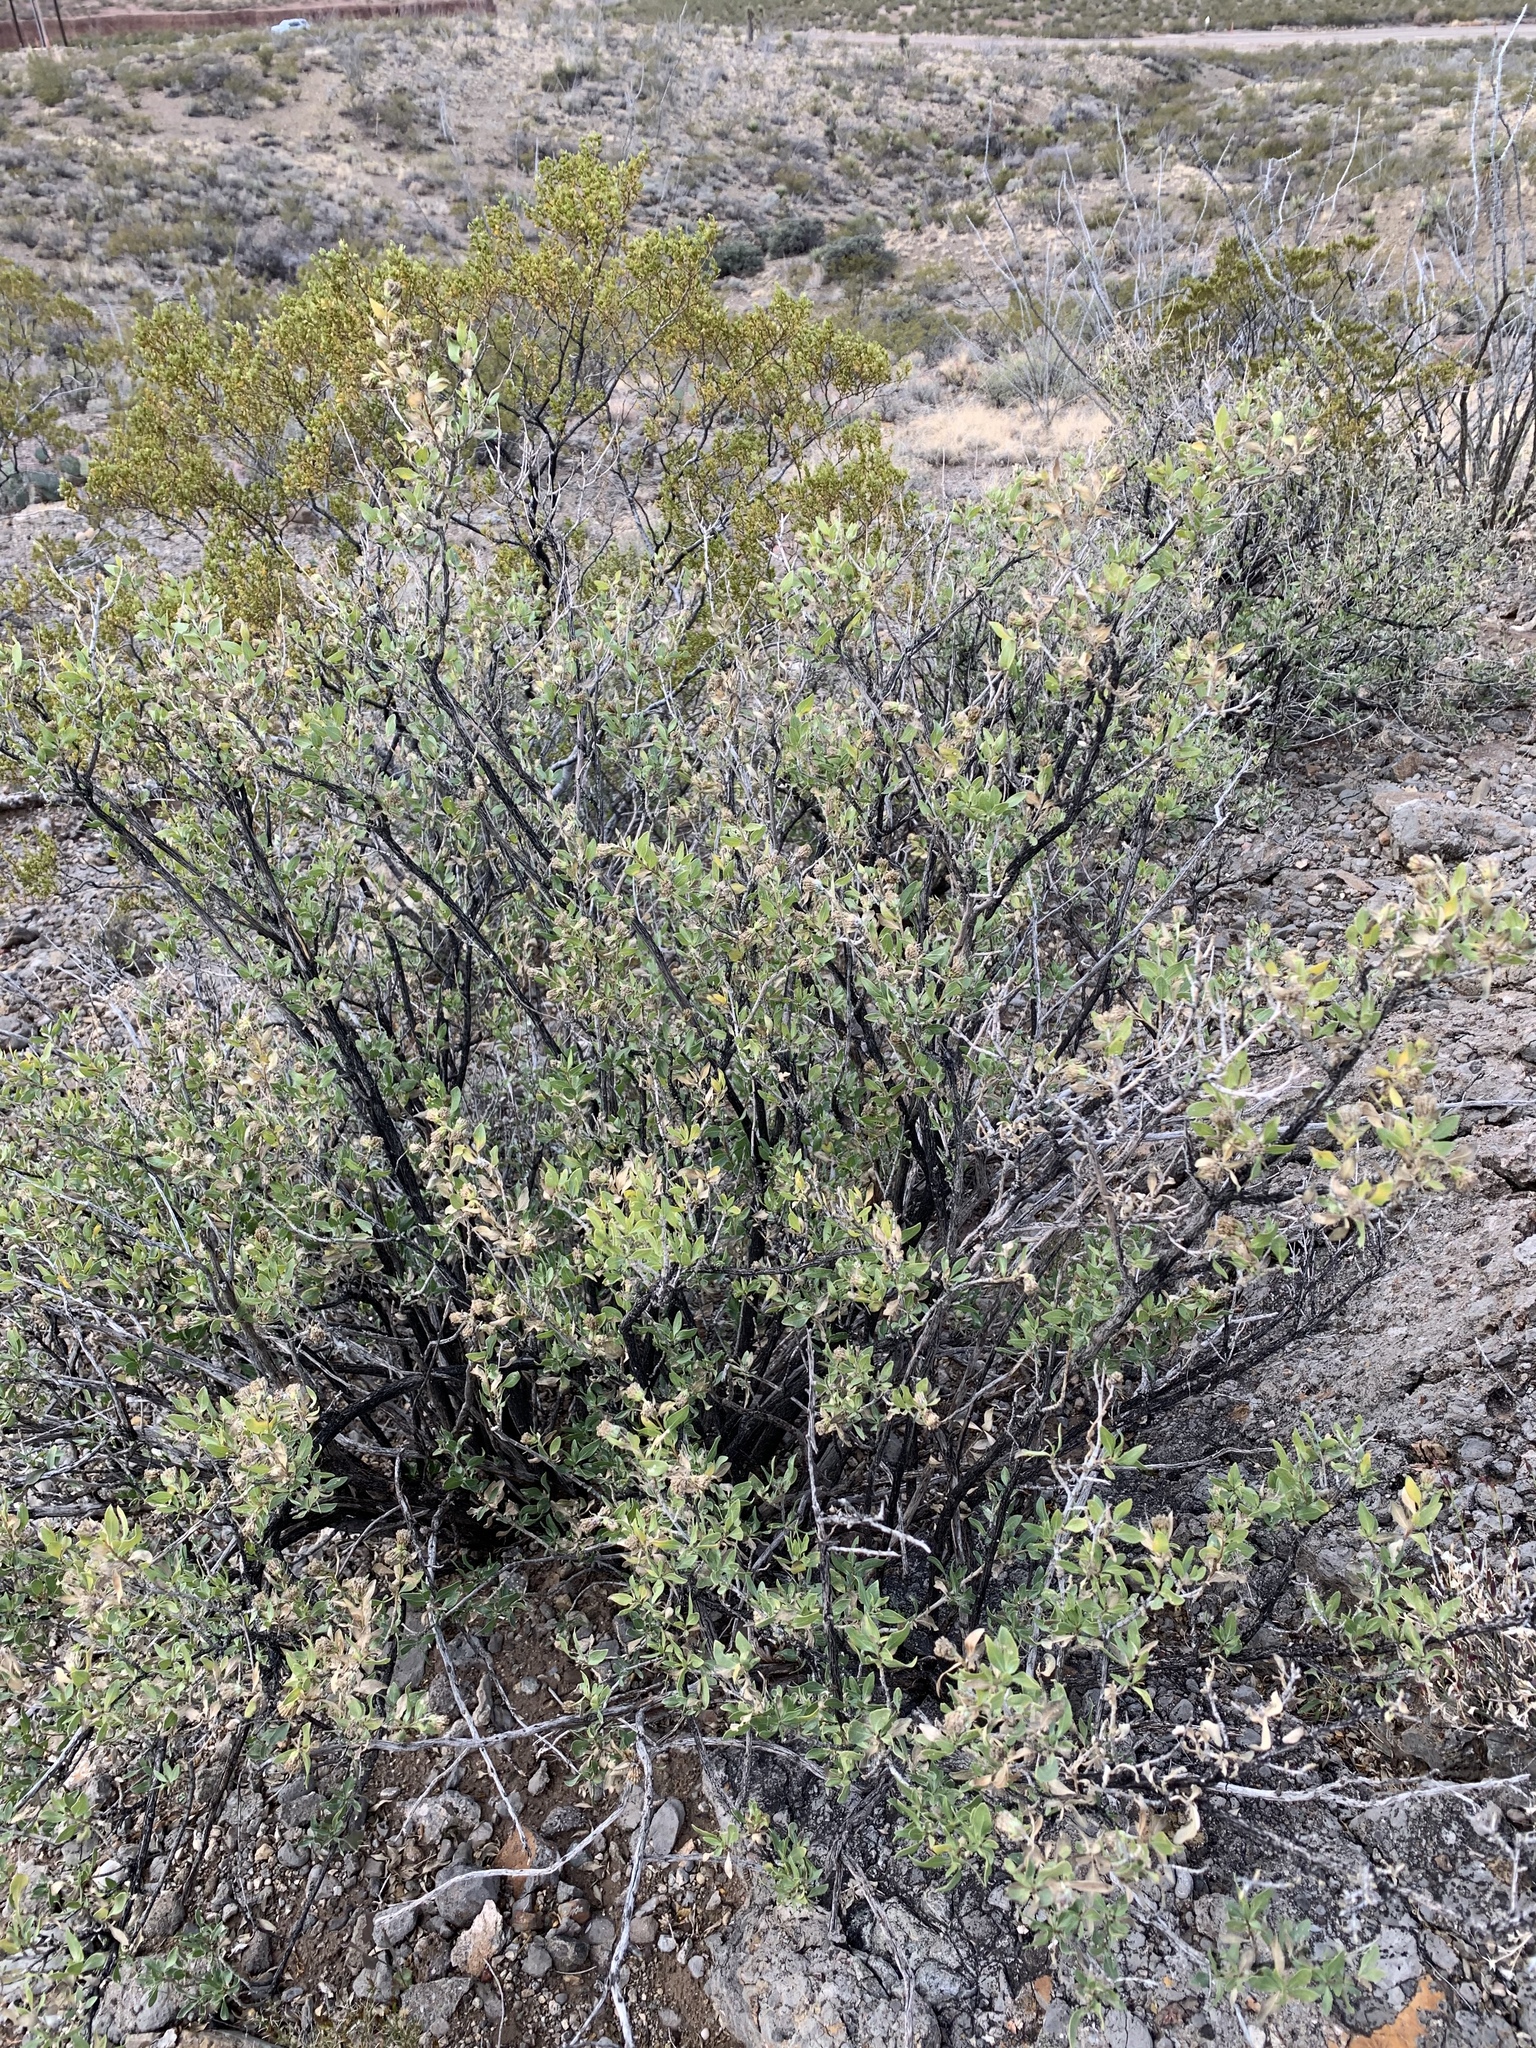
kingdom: Plantae
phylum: Tracheophyta
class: Magnoliopsida
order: Asterales
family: Asteraceae
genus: Flourensia
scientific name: Flourensia cernua
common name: Varnishbush
